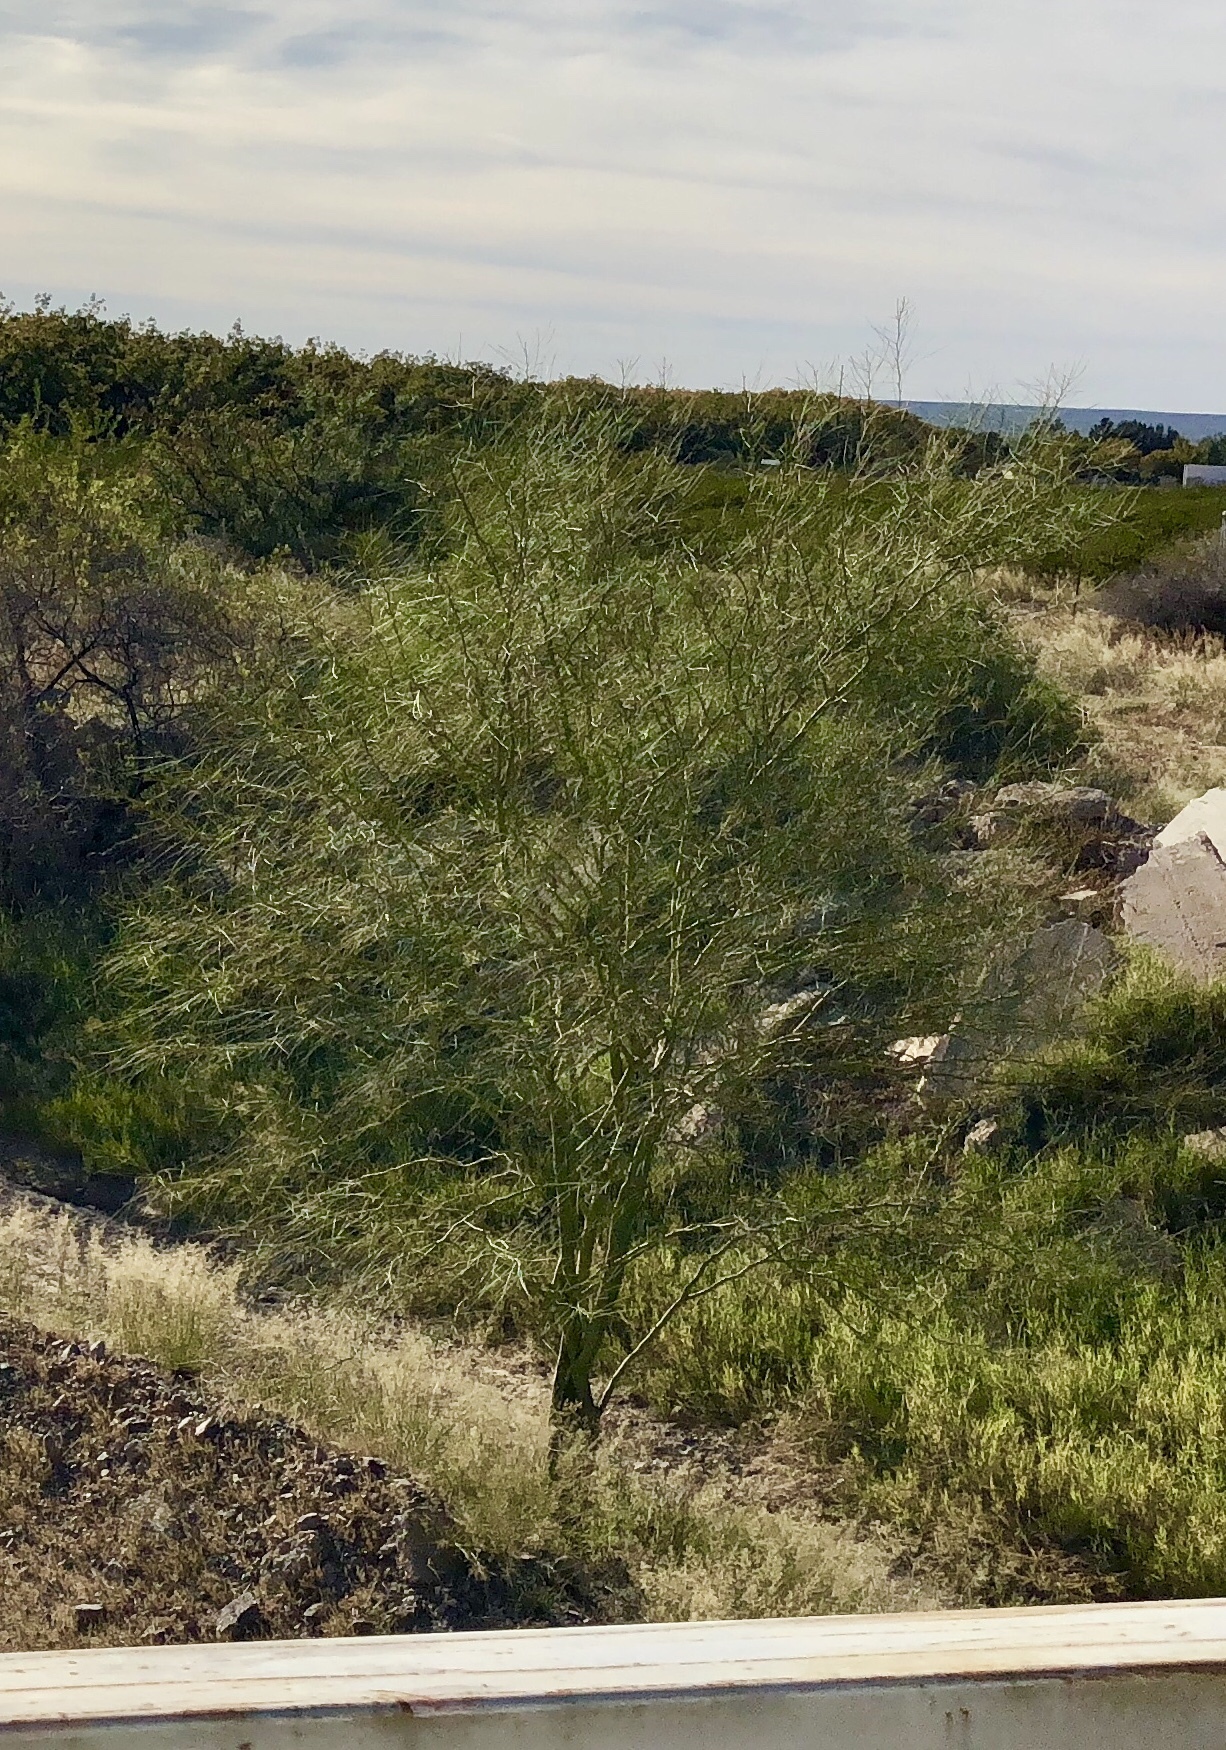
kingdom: Plantae
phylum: Tracheophyta
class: Magnoliopsida
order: Fabales
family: Fabaceae
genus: Parkinsonia
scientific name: Parkinsonia aculeata
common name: Jerusalem thorn
